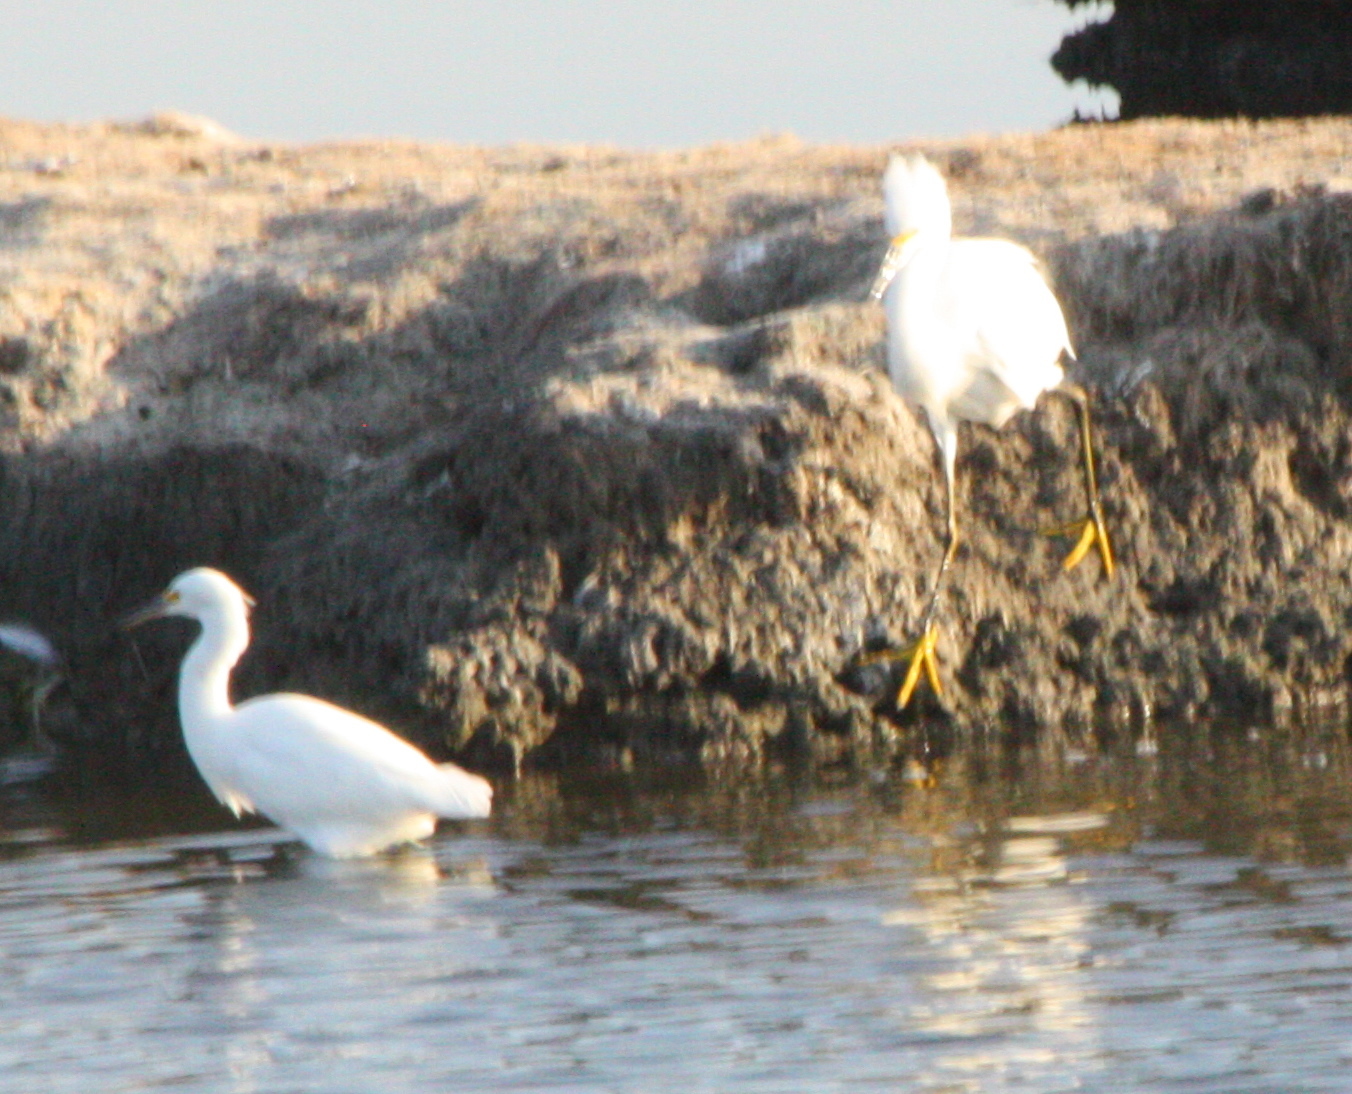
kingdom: Animalia
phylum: Chordata
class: Aves
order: Pelecaniformes
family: Ardeidae
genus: Egretta
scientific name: Egretta thula
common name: Snowy egret
